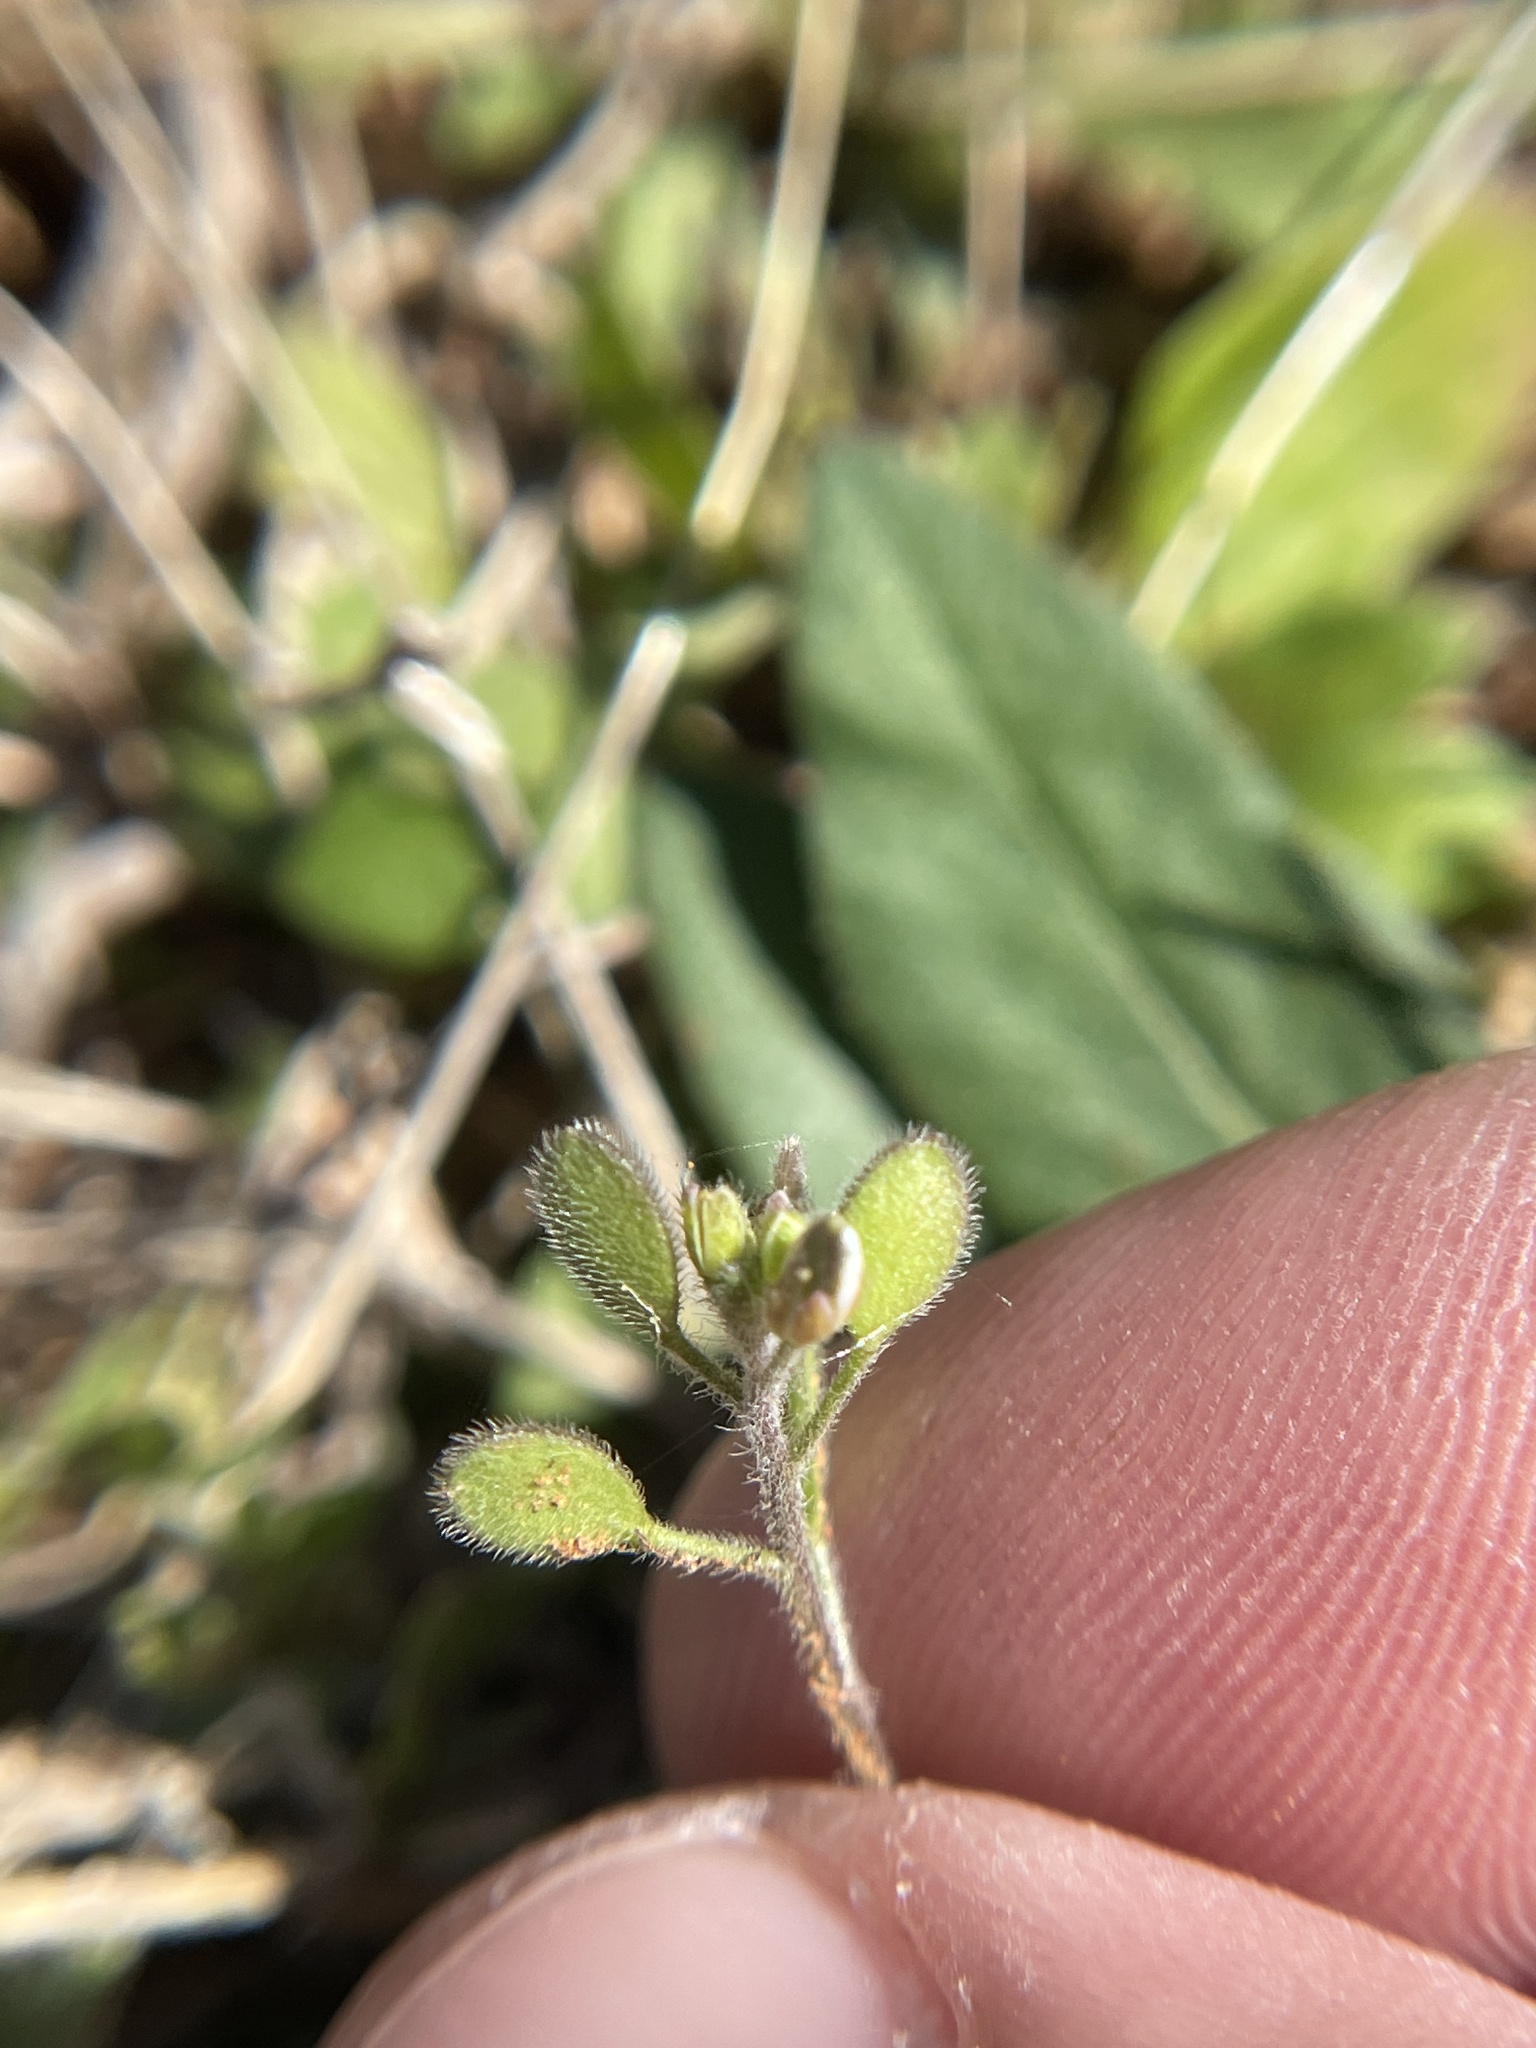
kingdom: Plantae
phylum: Tracheophyta
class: Magnoliopsida
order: Brassicales
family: Brassicaceae
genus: Tomostima
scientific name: Tomostima platycarpa
